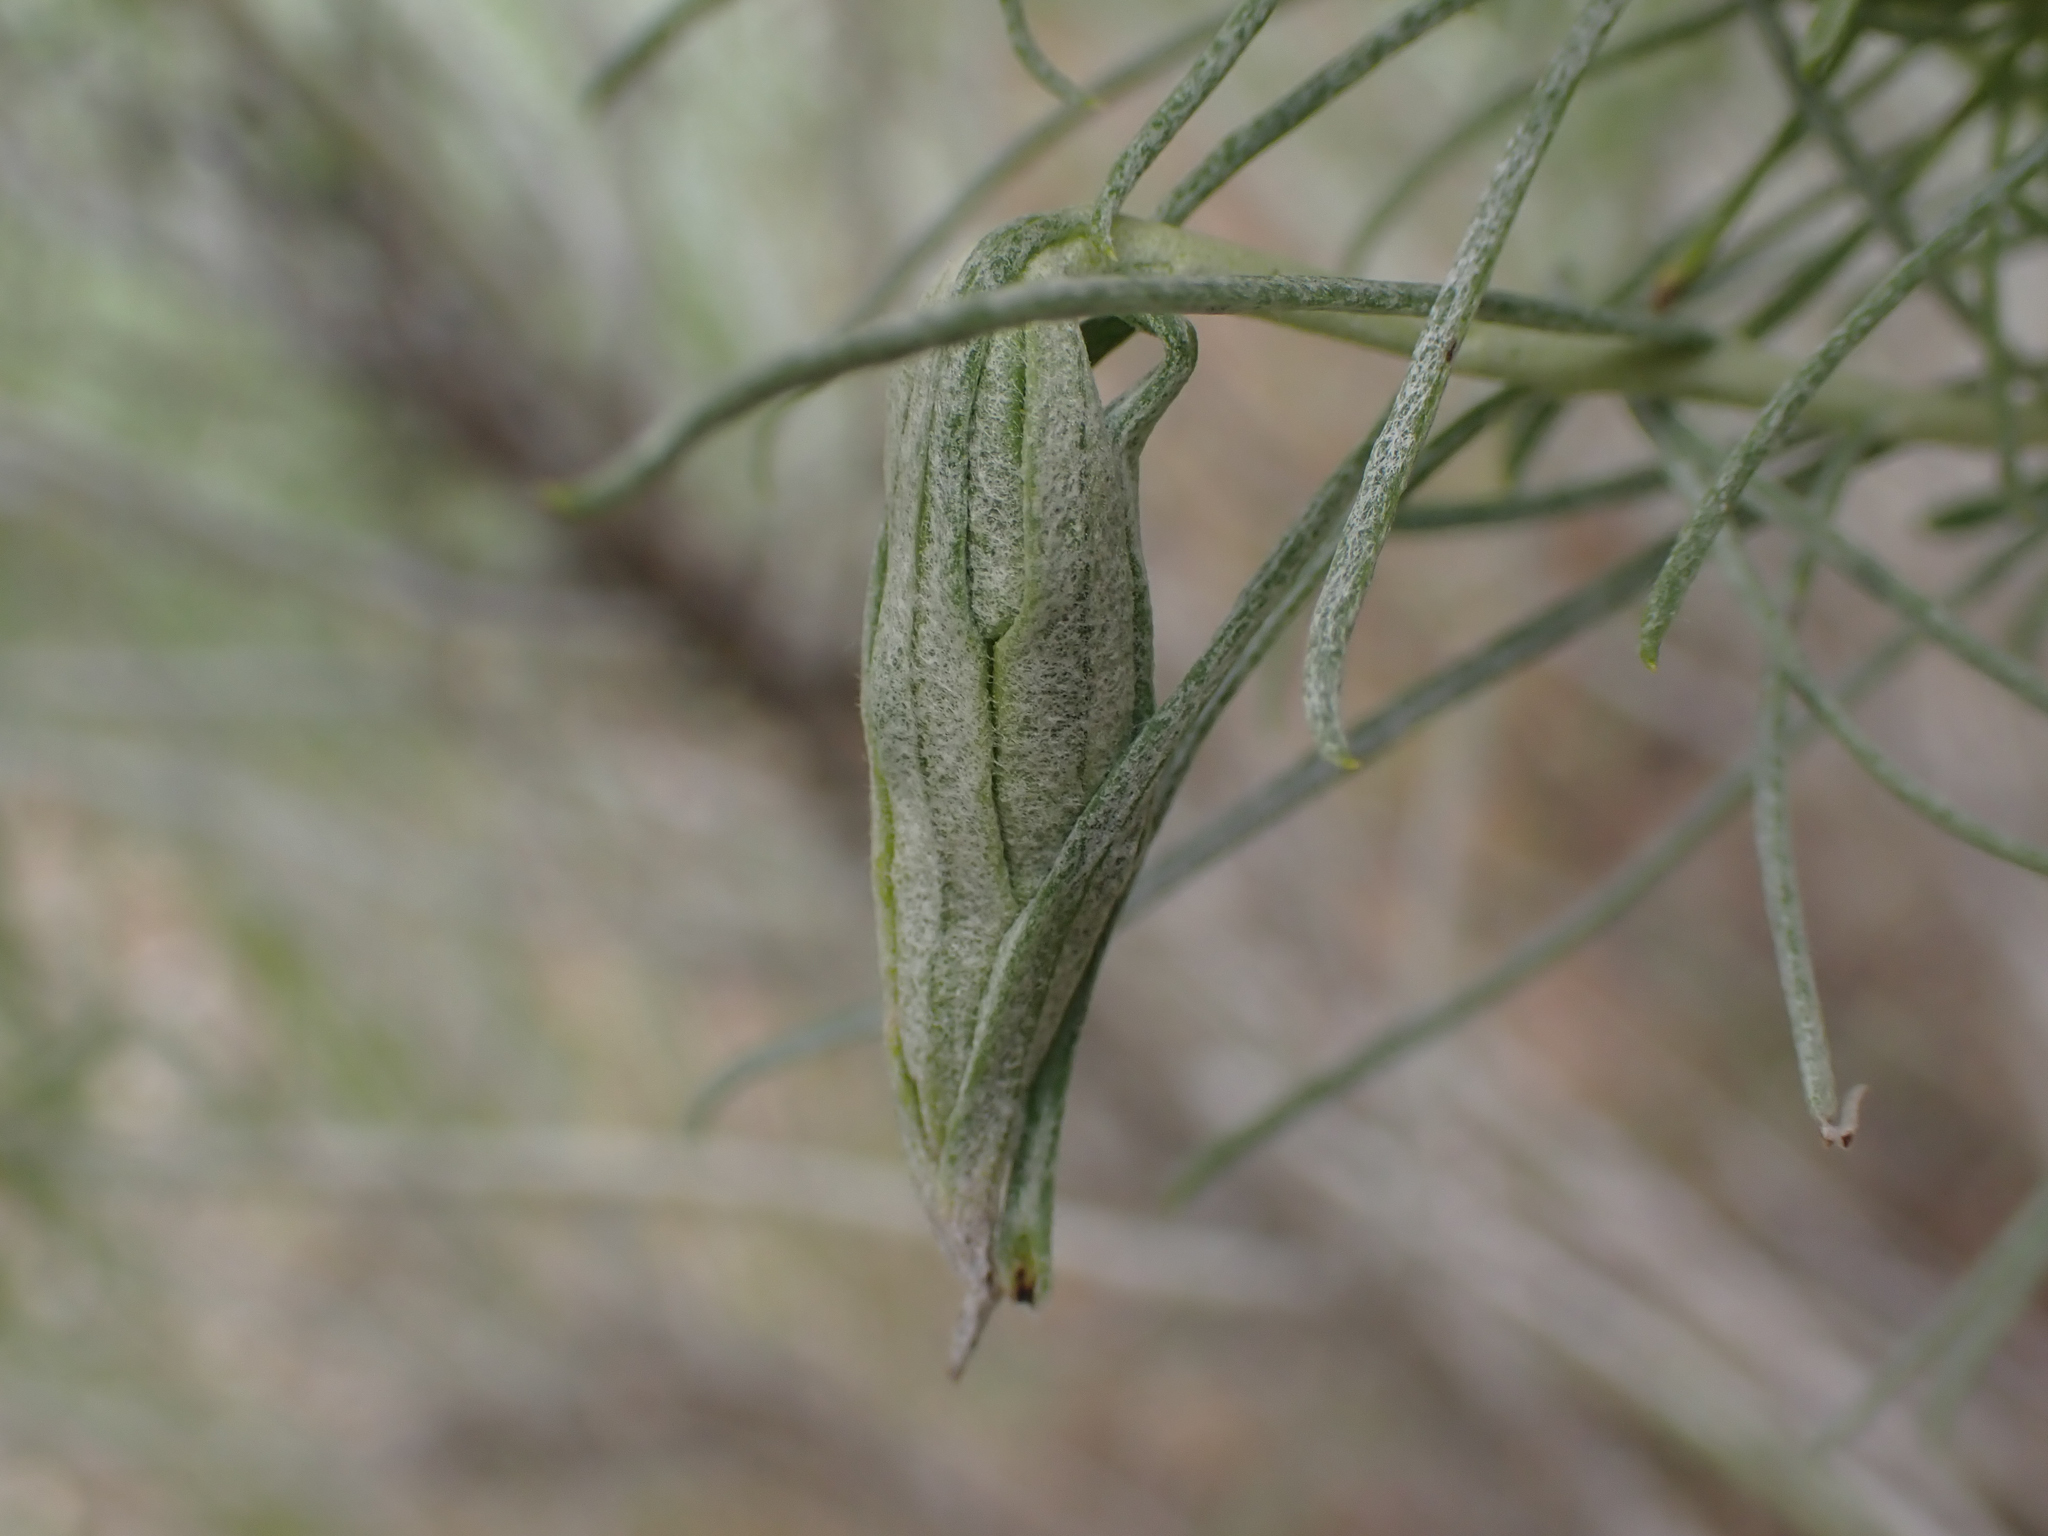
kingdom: Animalia
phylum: Arthropoda
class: Insecta
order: Lepidoptera
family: Gelechiidae
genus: Gnorimoschema
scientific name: Gnorimoschema octomaculella
